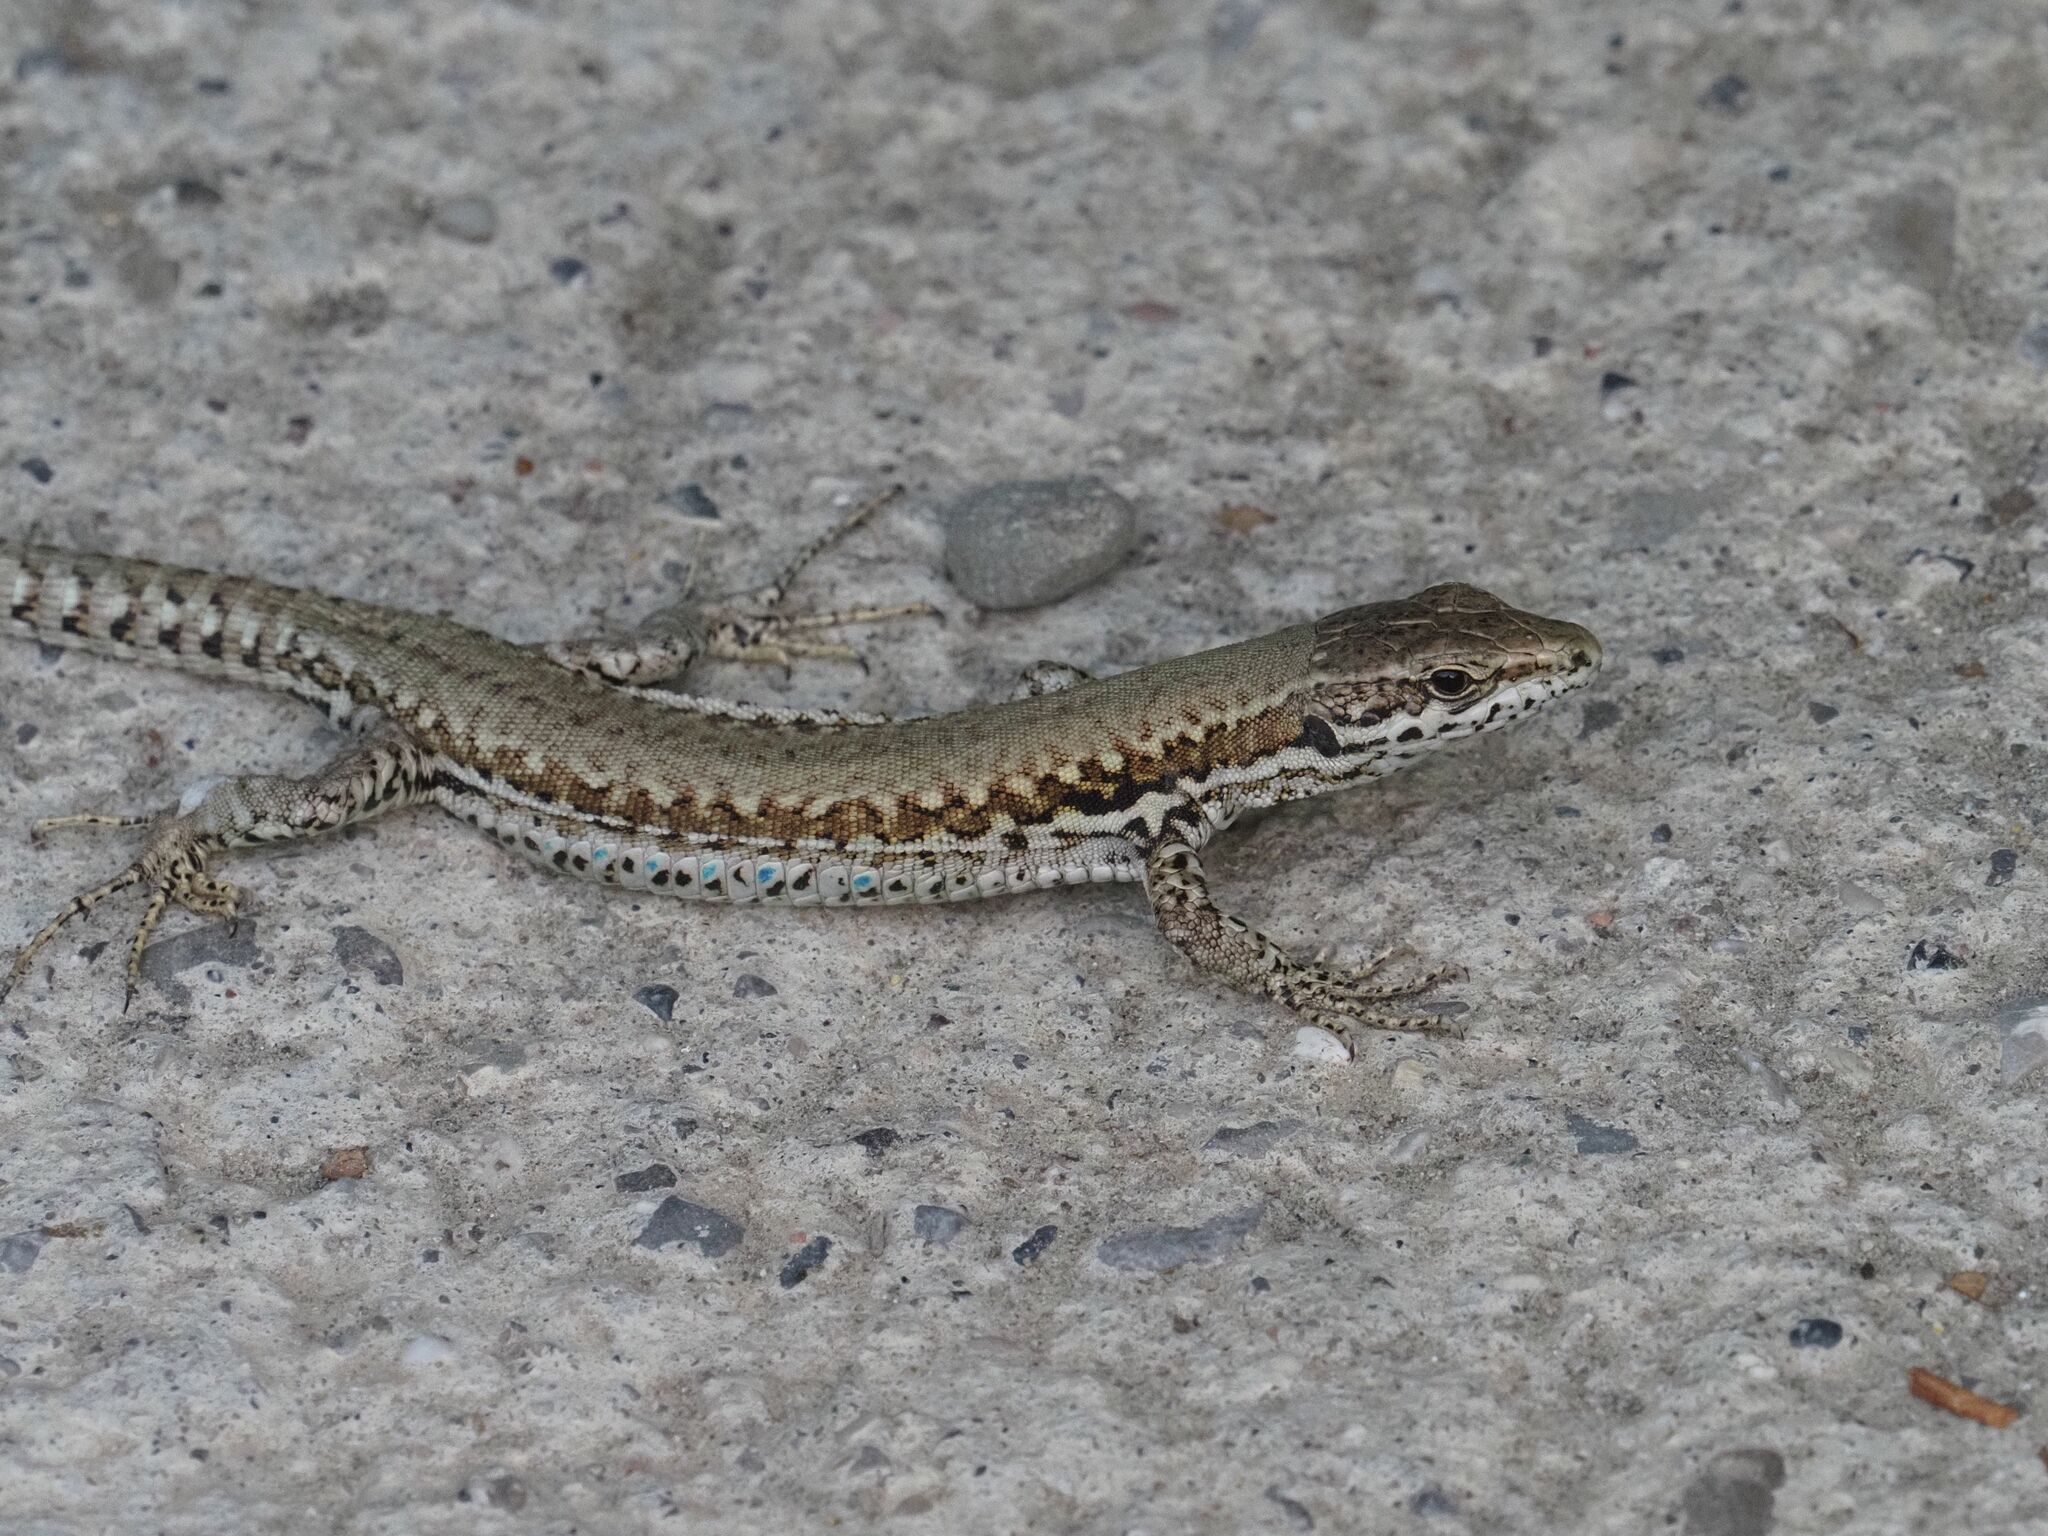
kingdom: Animalia
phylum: Chordata
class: Squamata
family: Lacertidae
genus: Podarcis
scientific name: Podarcis muralis
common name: Common wall lizard
